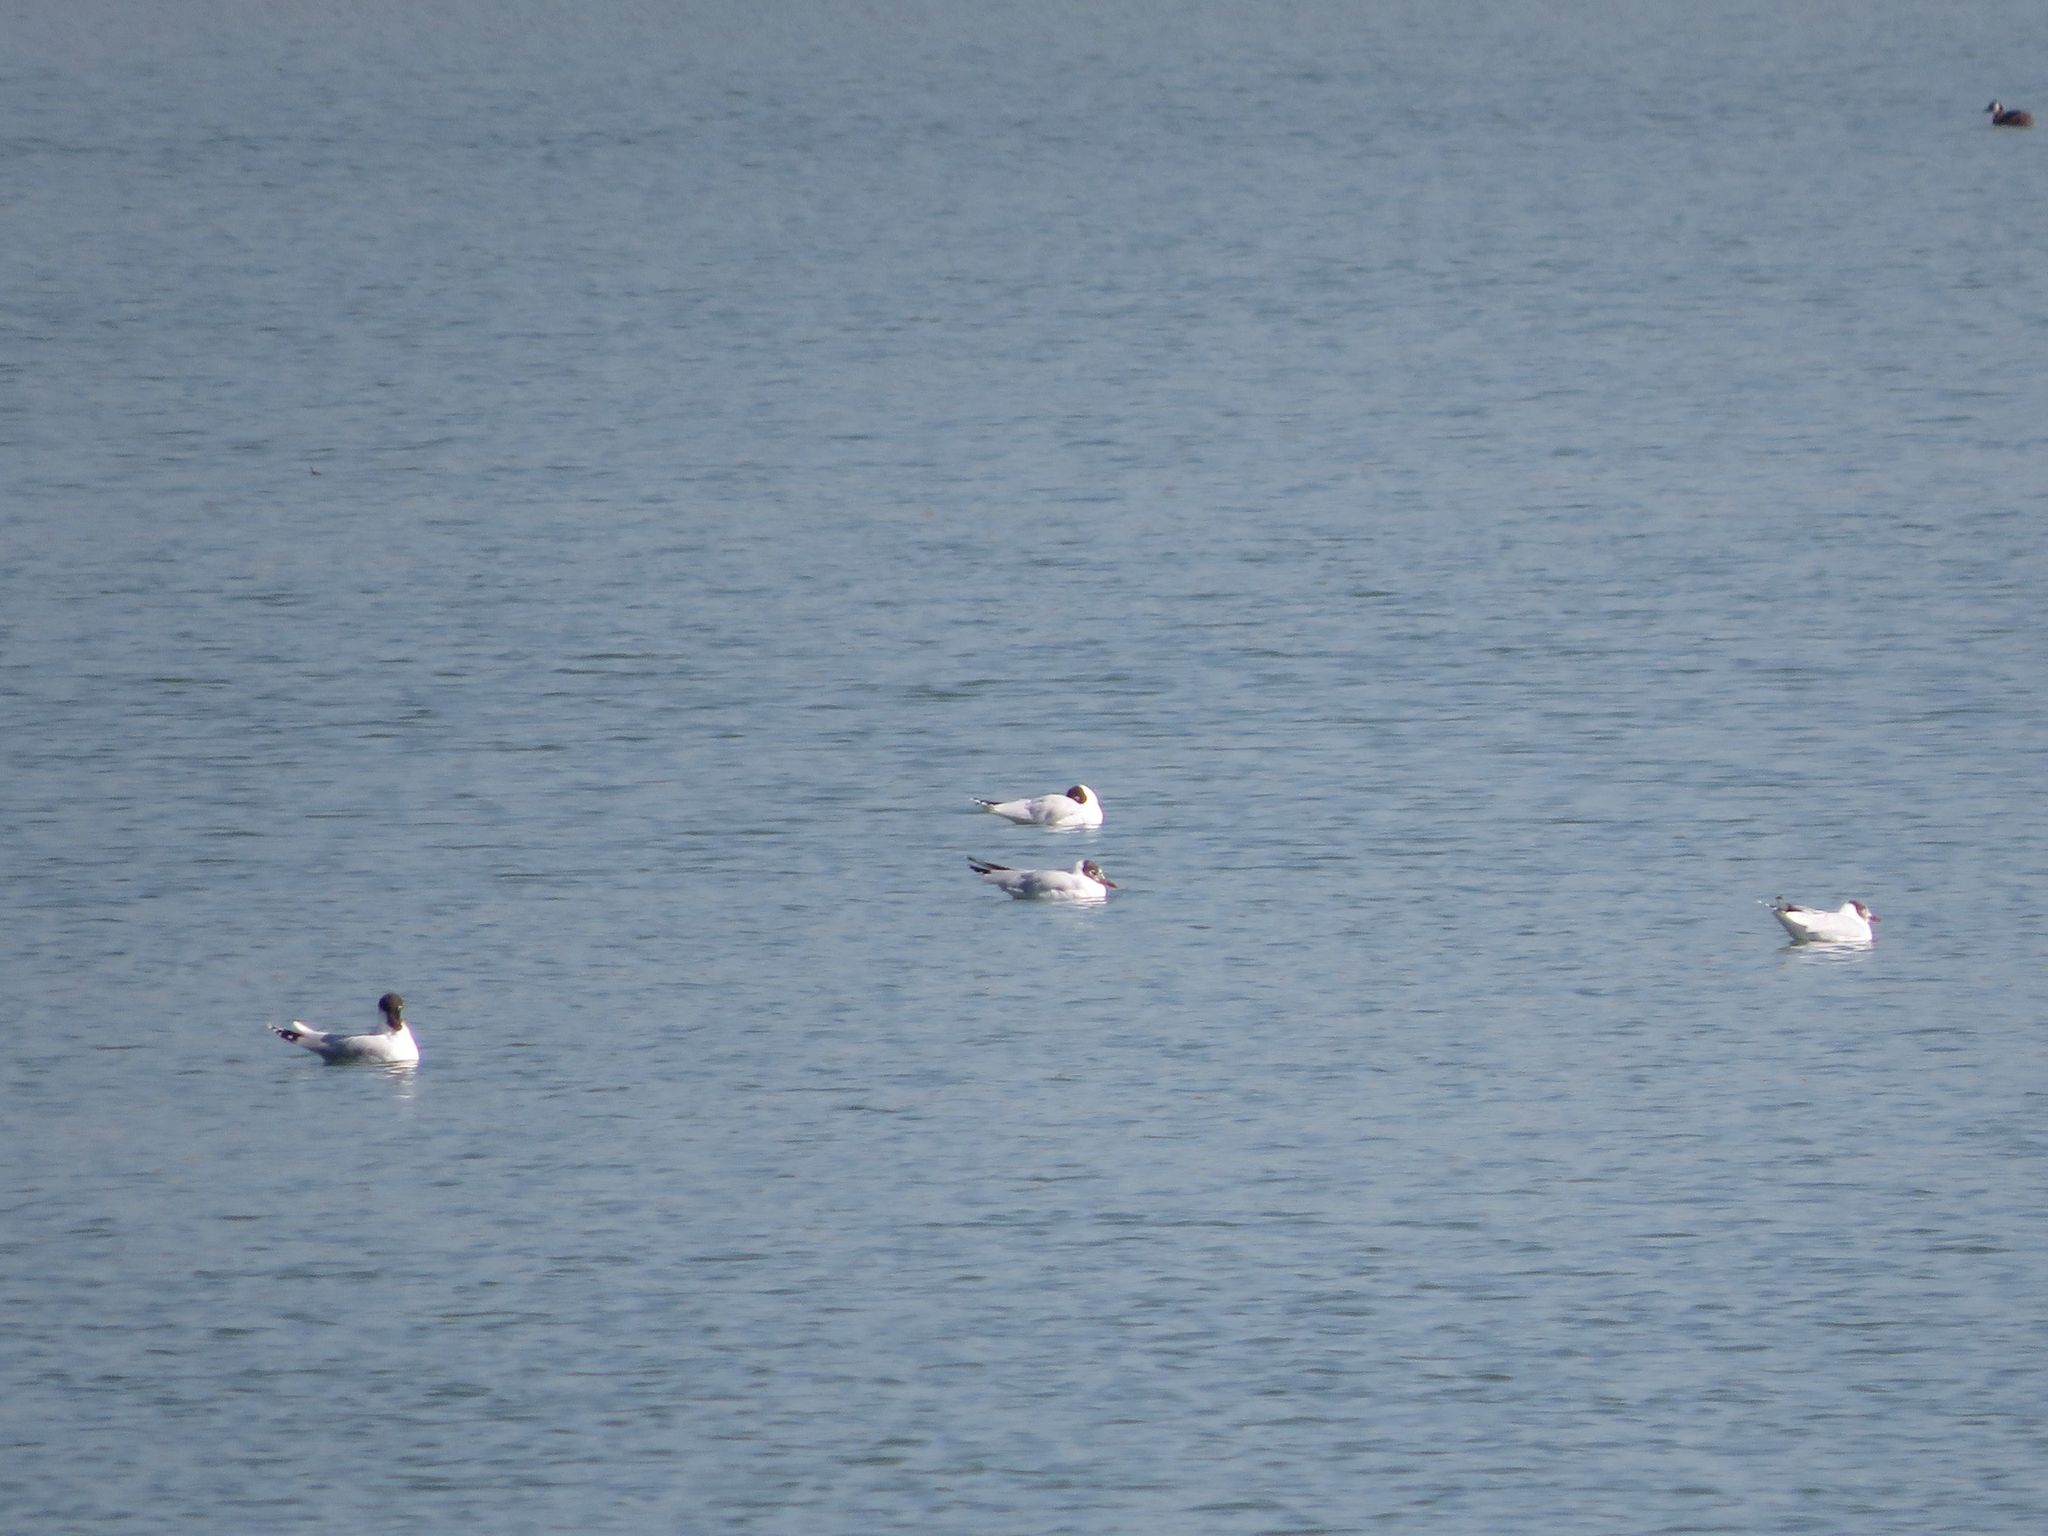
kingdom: Animalia
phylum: Chordata
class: Aves
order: Charadriiformes
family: Laridae
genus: Chroicocephalus
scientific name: Chroicocephalus maculipennis
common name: Brown-hooded gull
